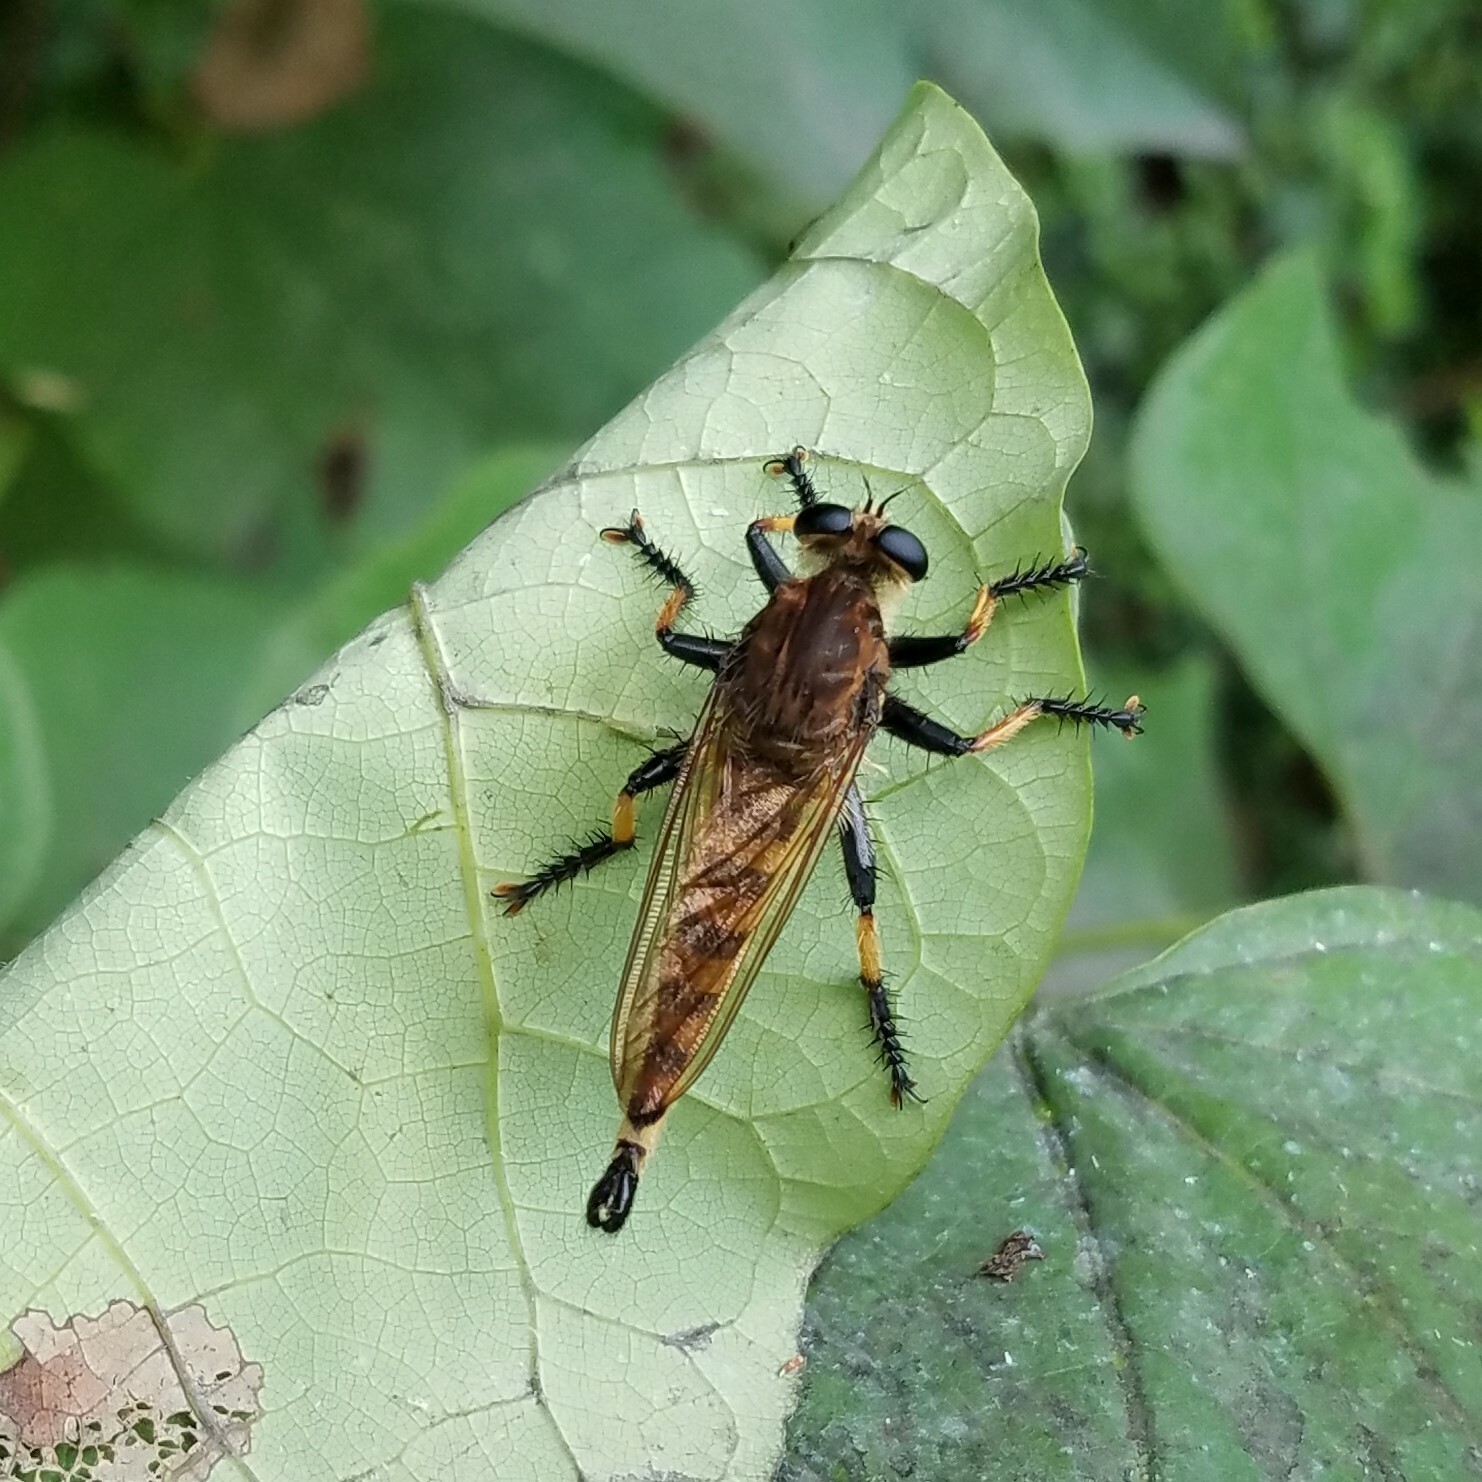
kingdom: Animalia
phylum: Arthropoda
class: Insecta
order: Diptera
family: Asilidae
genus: Promachus
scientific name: Promachus rufipes
